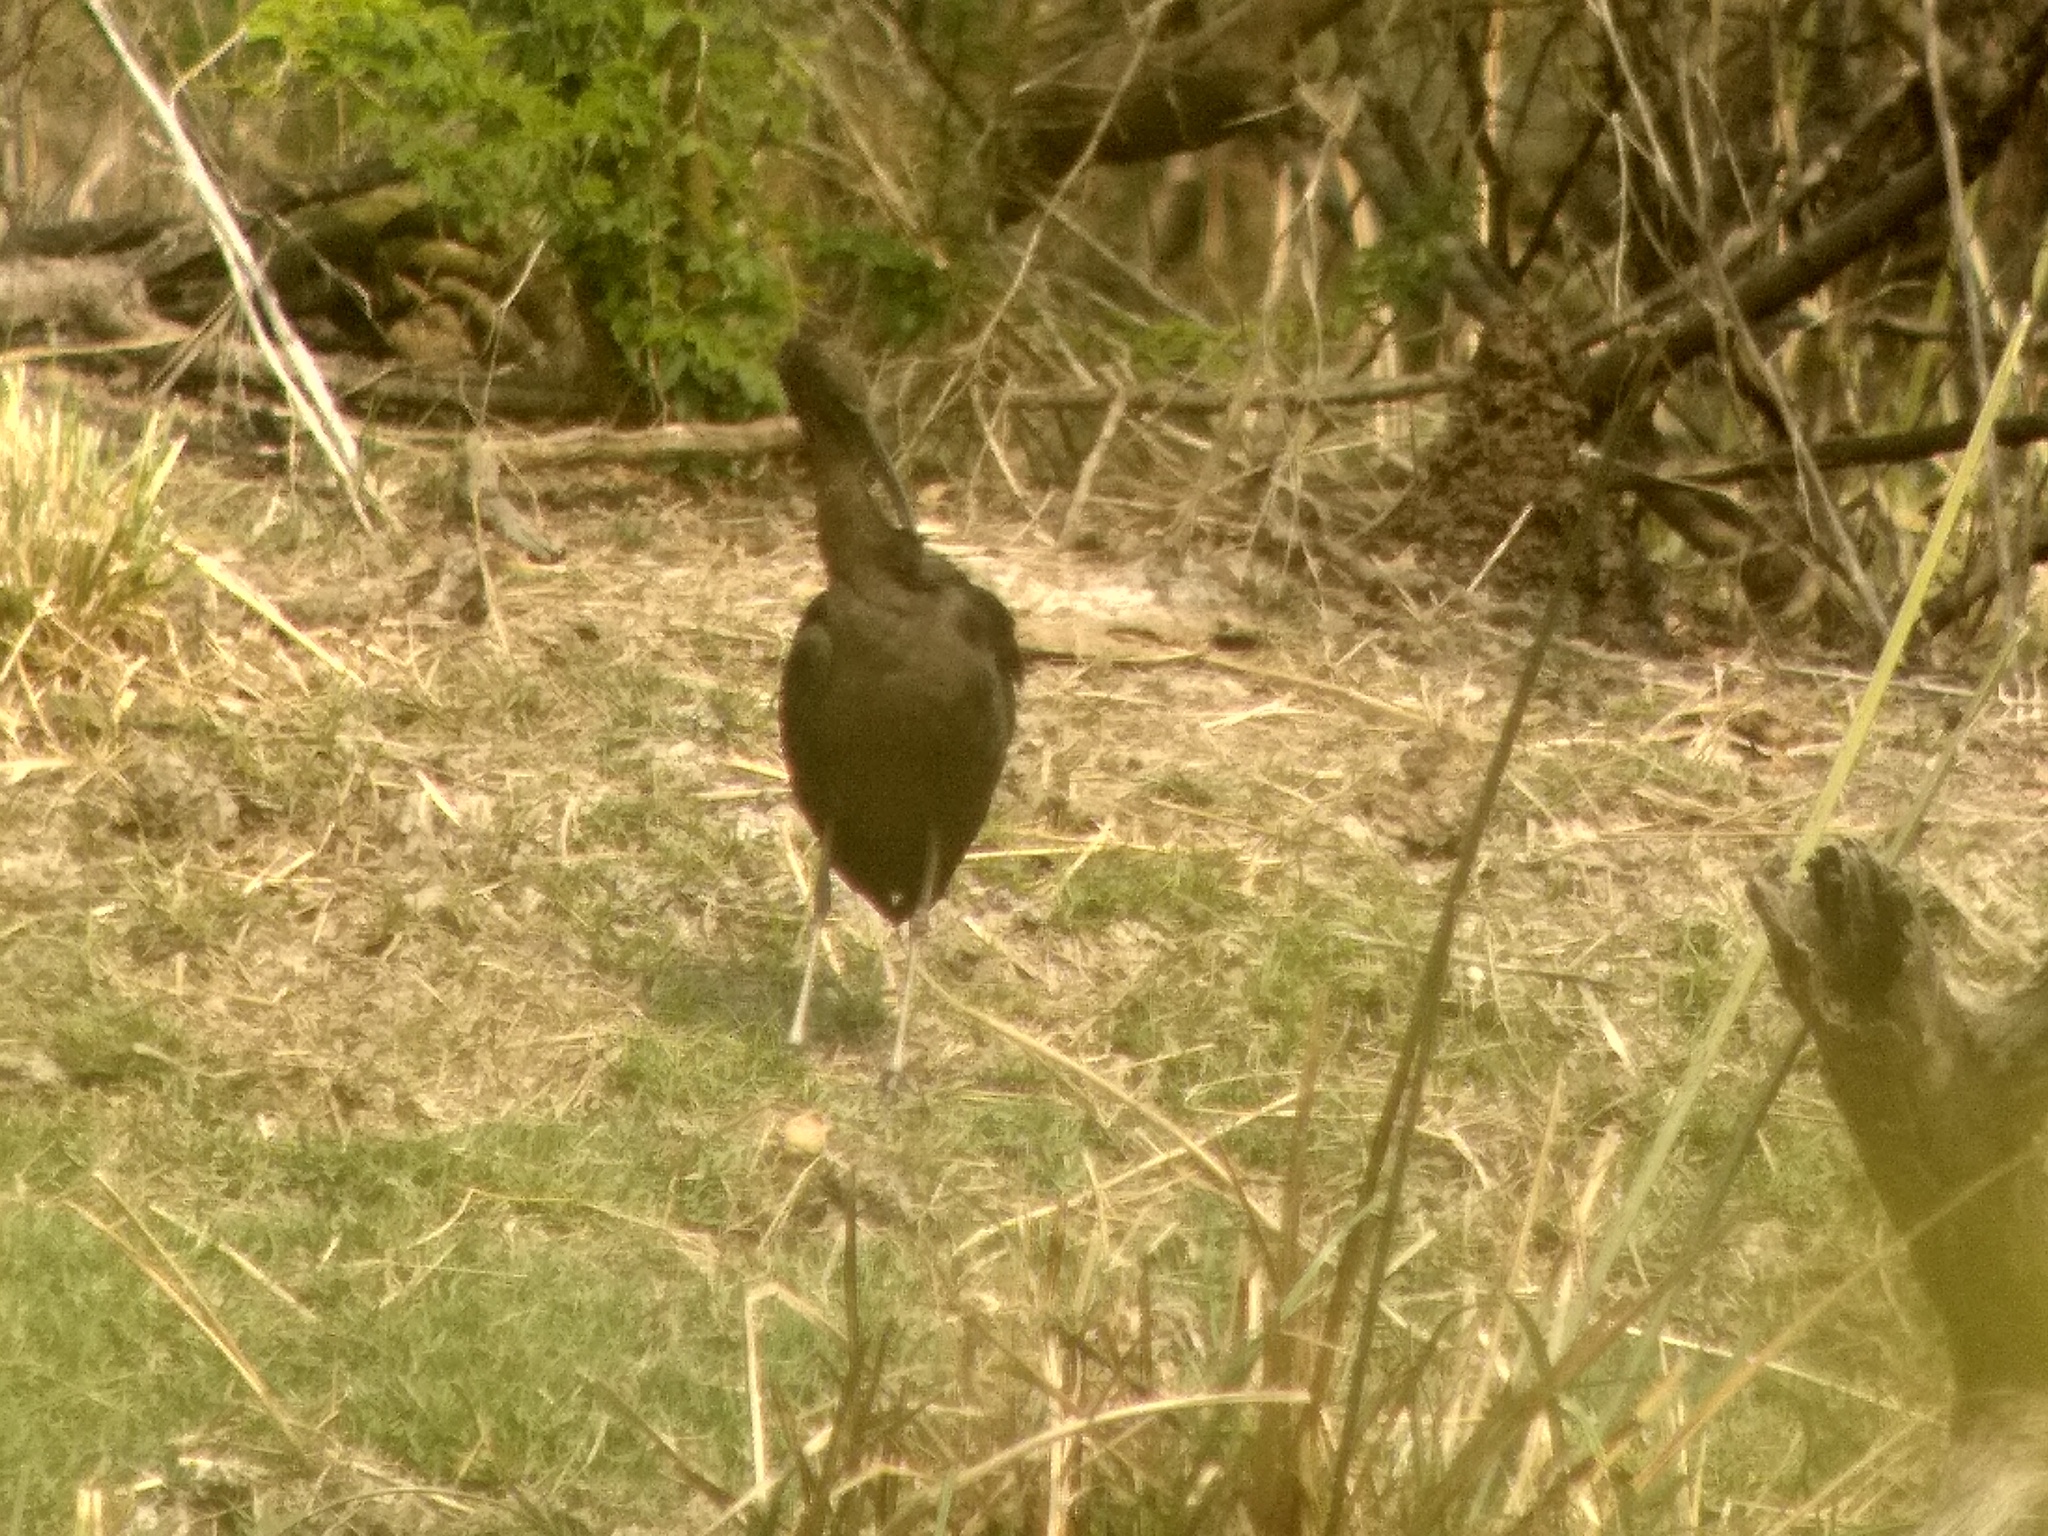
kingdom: Animalia
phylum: Chordata
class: Aves
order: Pelecaniformes
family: Threskiornithidae
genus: Plegadis
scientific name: Plegadis falcinellus
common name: Glossy ibis
